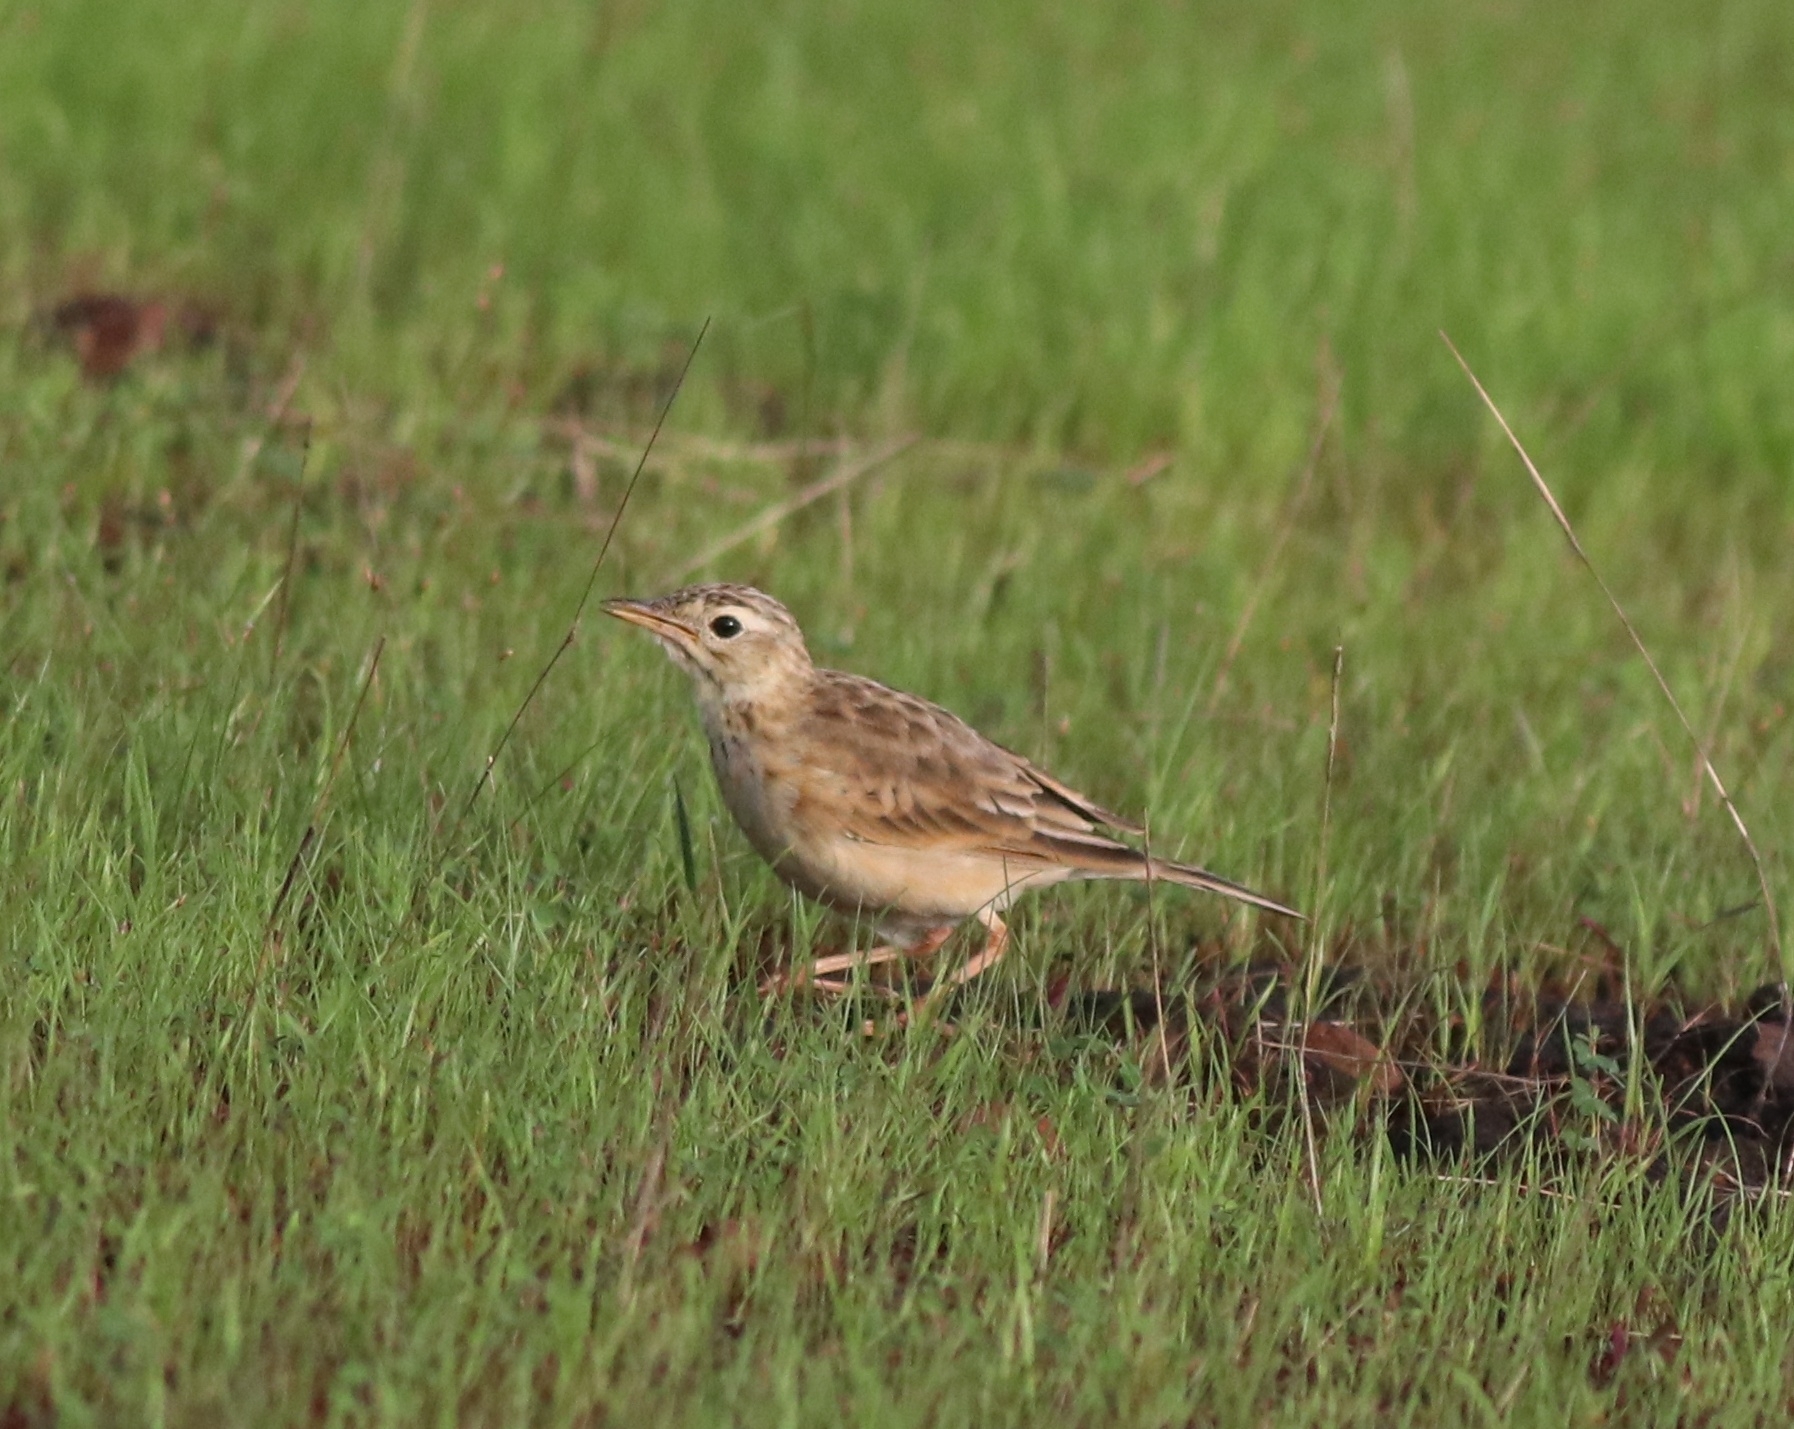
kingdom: Animalia
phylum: Chordata
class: Aves
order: Passeriformes
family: Motacillidae
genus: Anthus
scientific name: Anthus rufulus
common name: Paddyfield pipit
